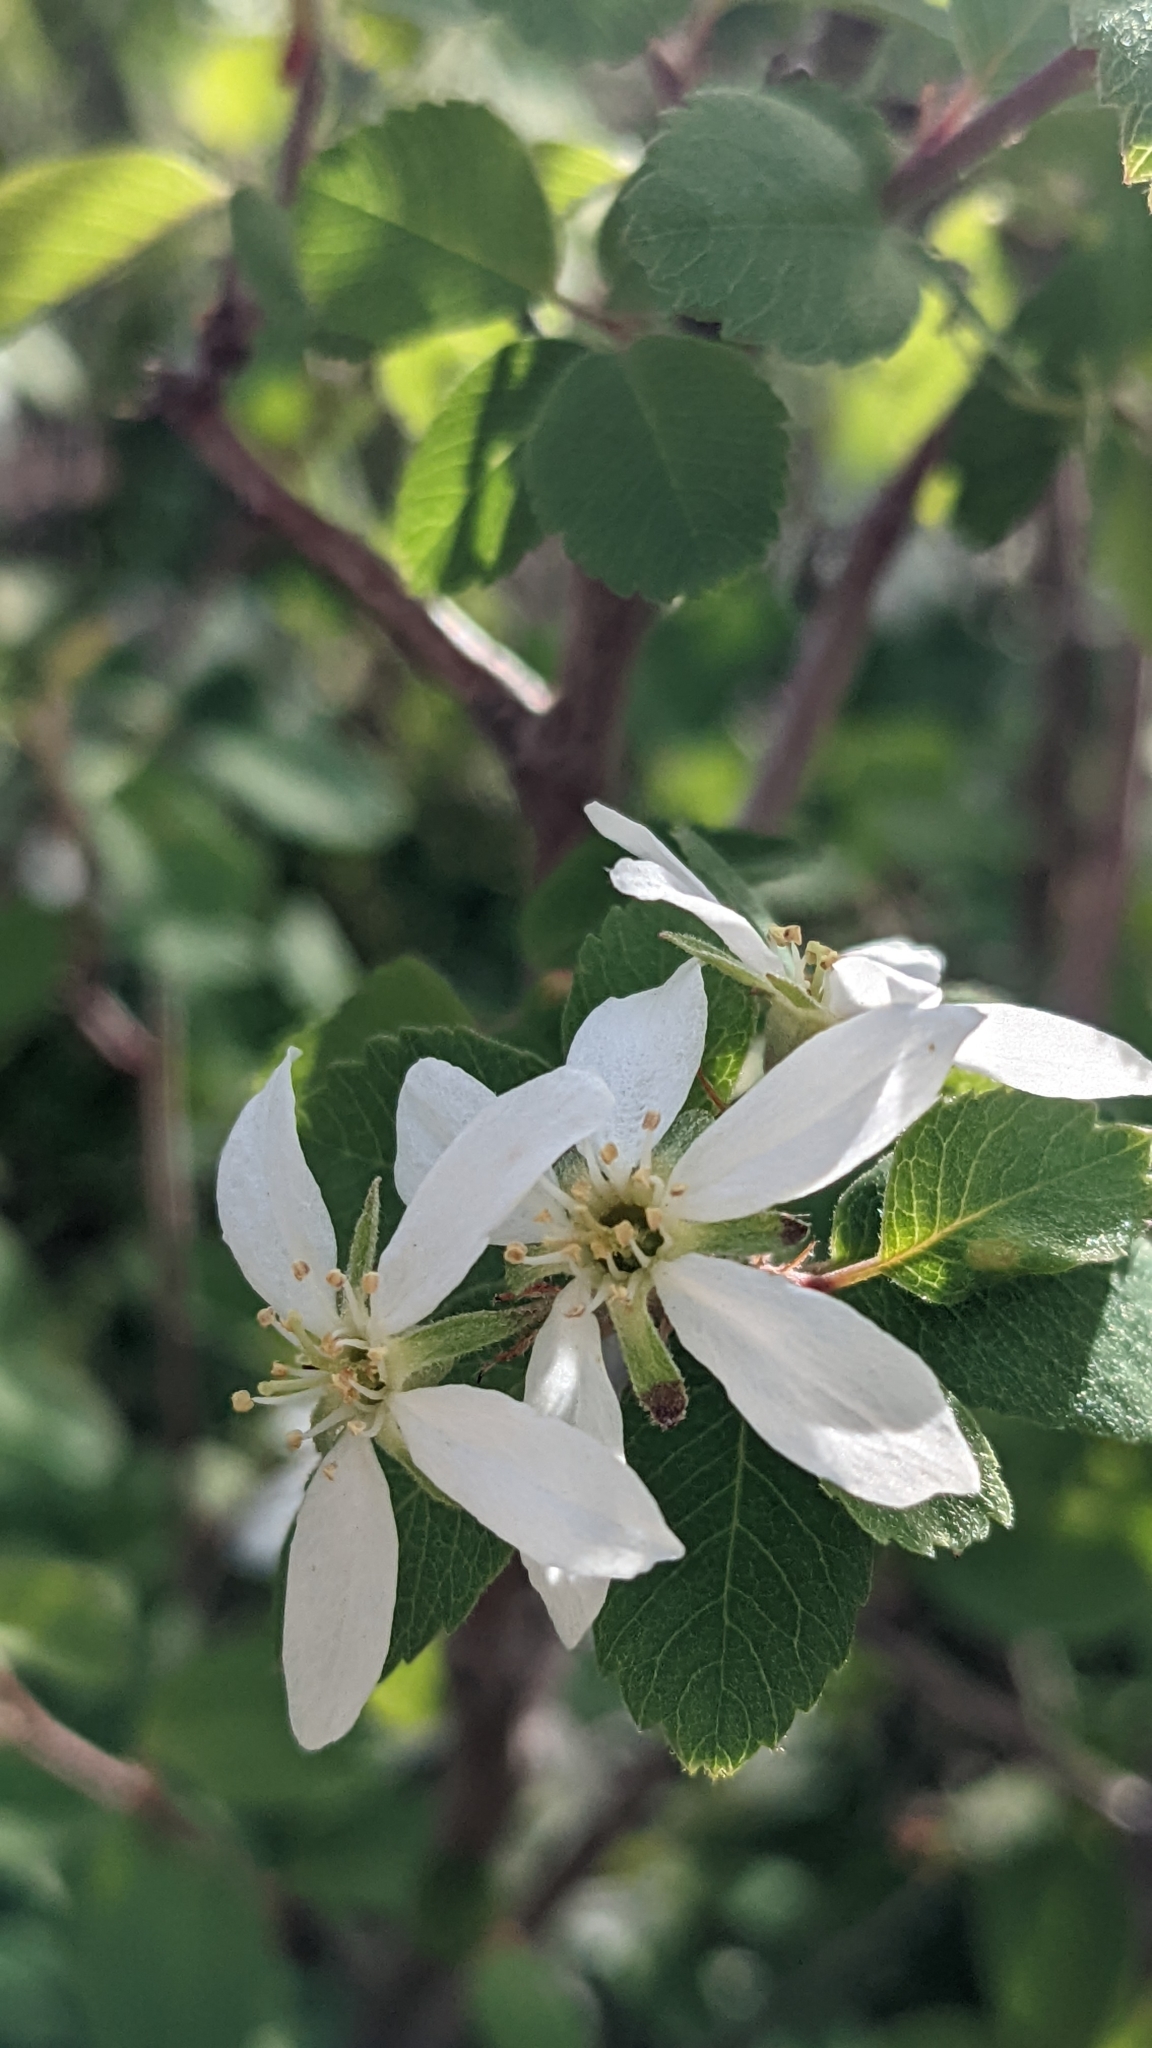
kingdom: Plantae
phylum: Tracheophyta
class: Magnoliopsida
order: Rosales
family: Rosaceae
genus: Amelanchier
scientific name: Amelanchier utahensis
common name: Utah serviceberry
